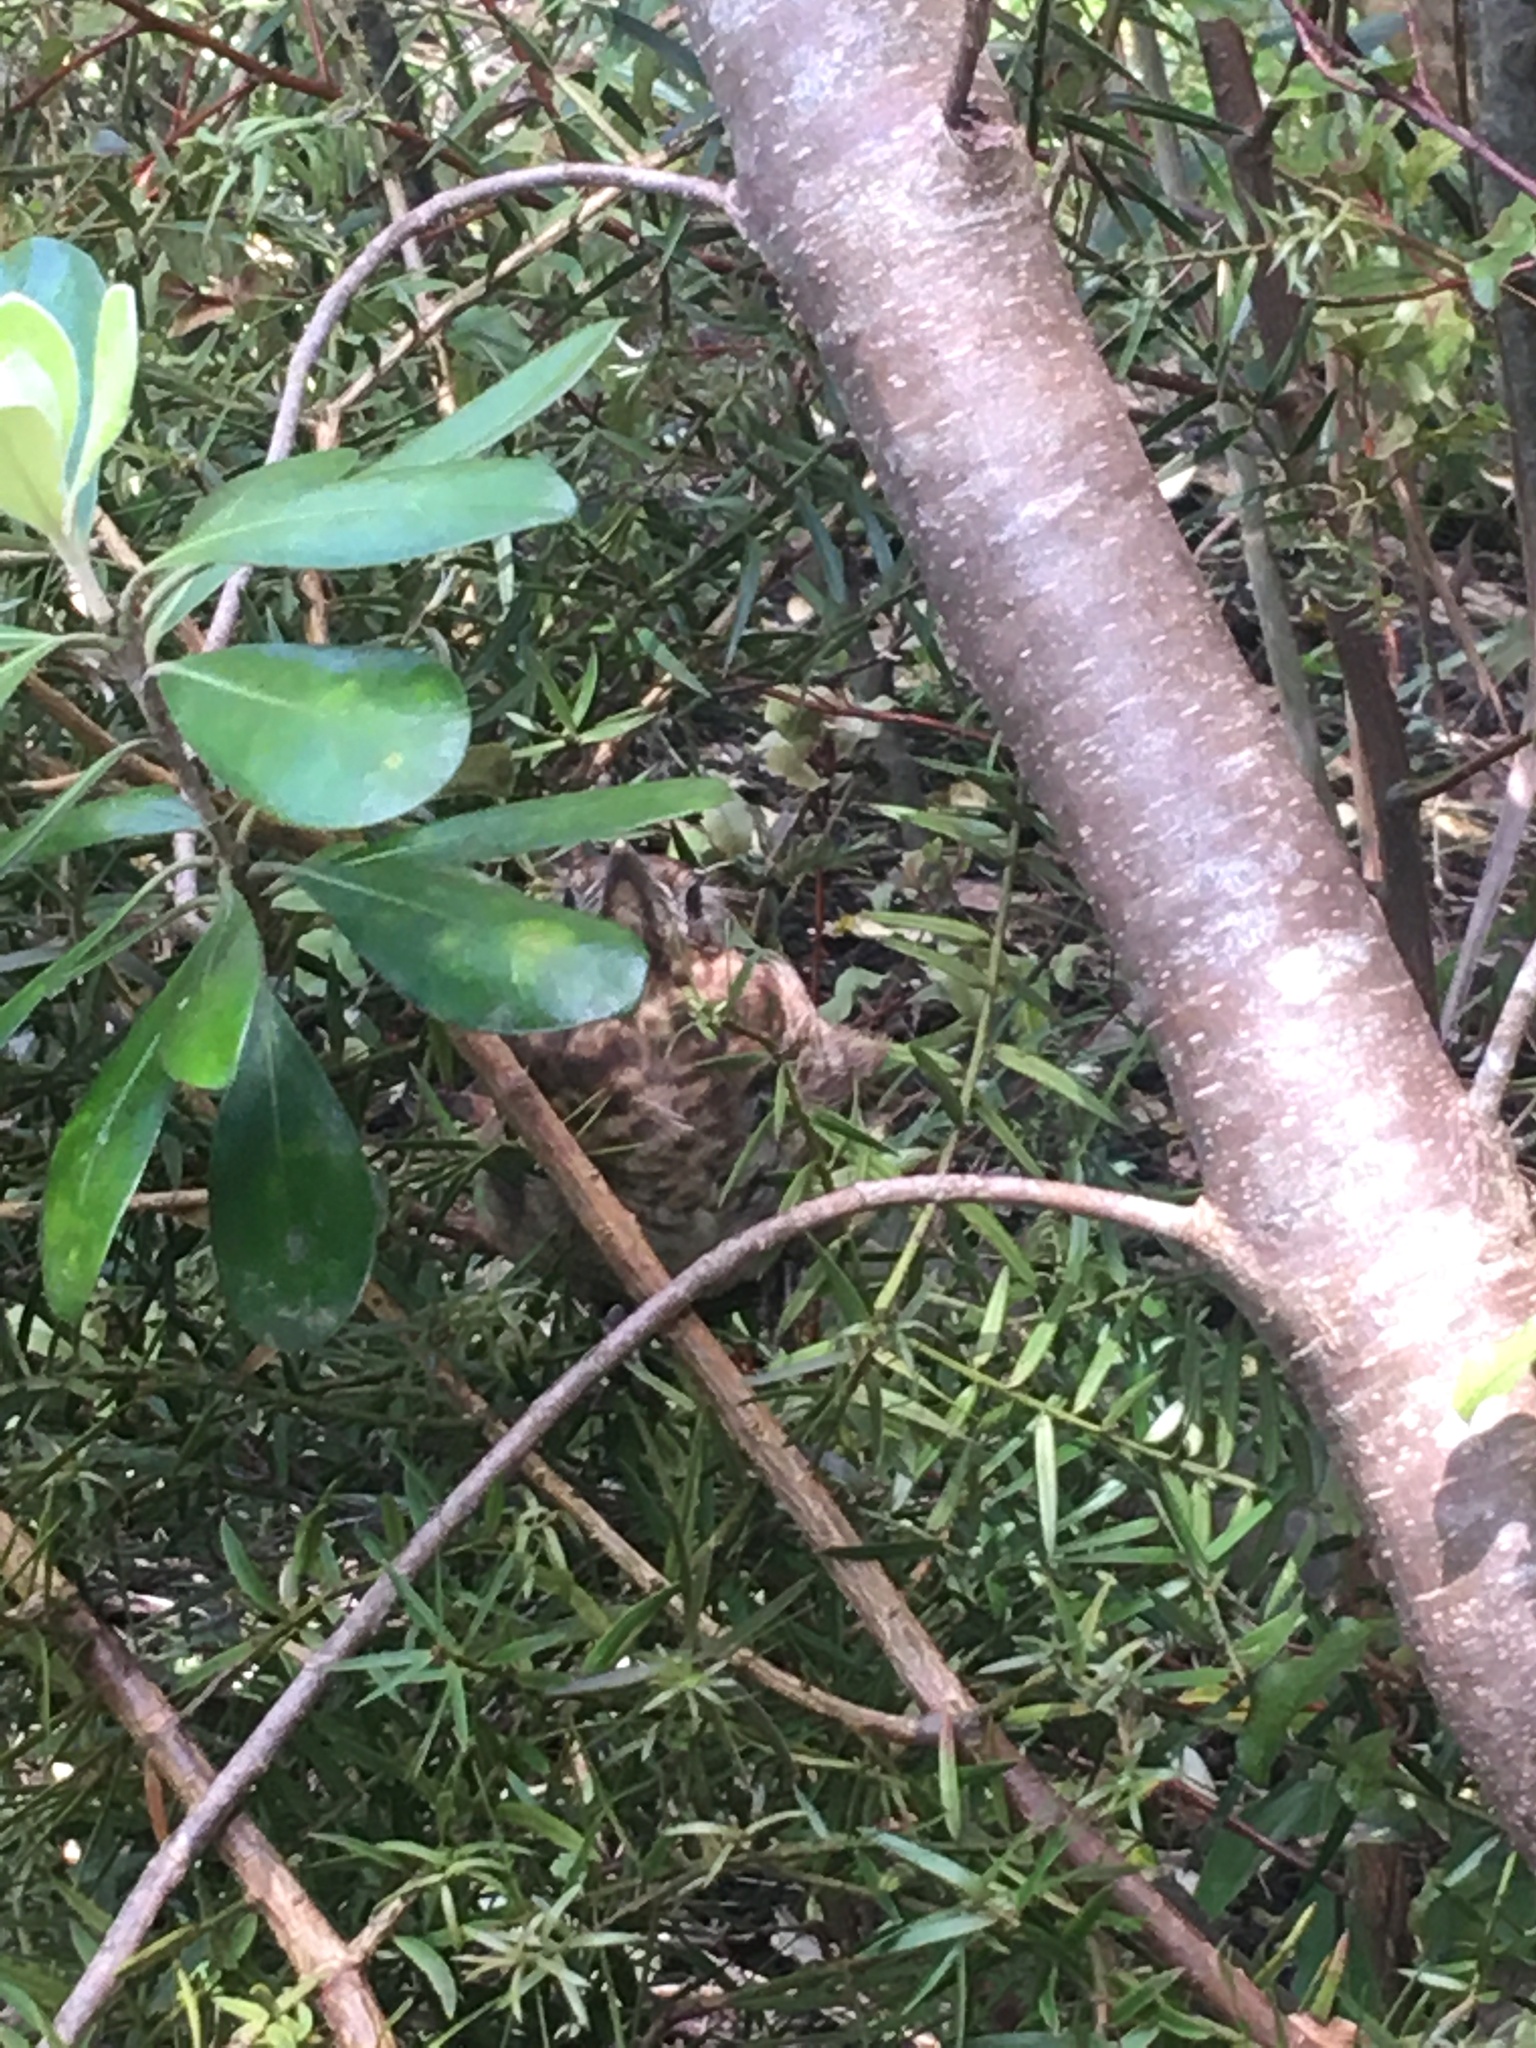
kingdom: Animalia
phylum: Chordata
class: Aves
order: Passeriformes
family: Turdidae
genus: Turdus
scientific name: Turdus merula
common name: Common blackbird
